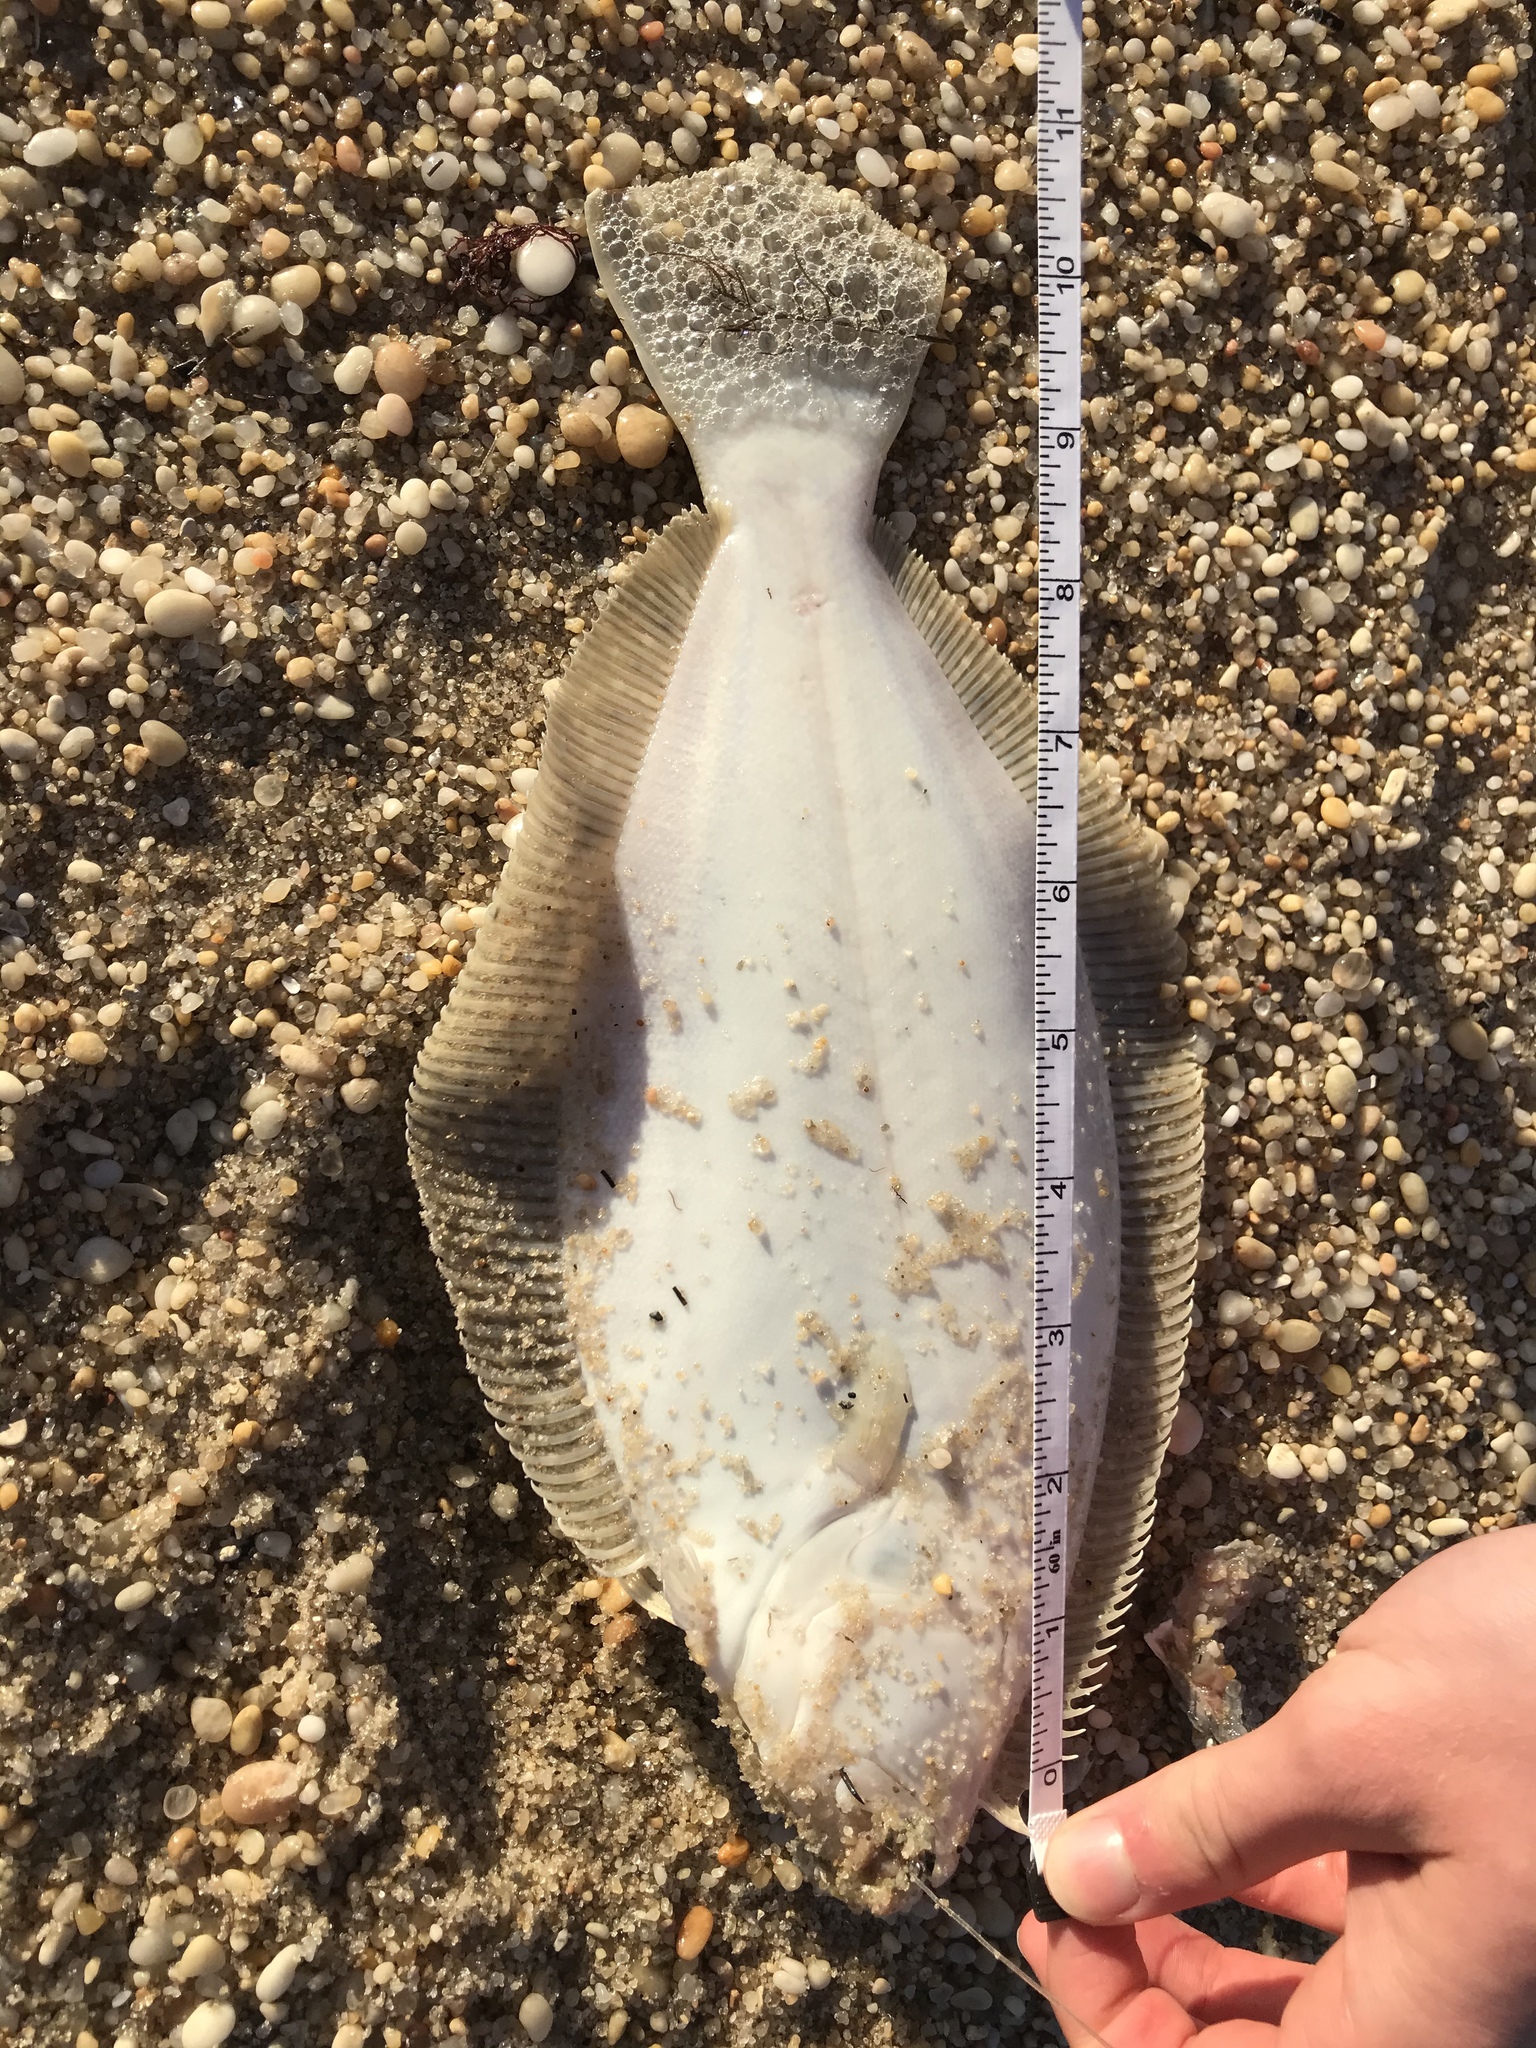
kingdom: Animalia
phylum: Chordata
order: Pleuronectiformes
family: Paralichthyidae
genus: Paralichthys
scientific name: Paralichthys dentatus
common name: Summer flounder
